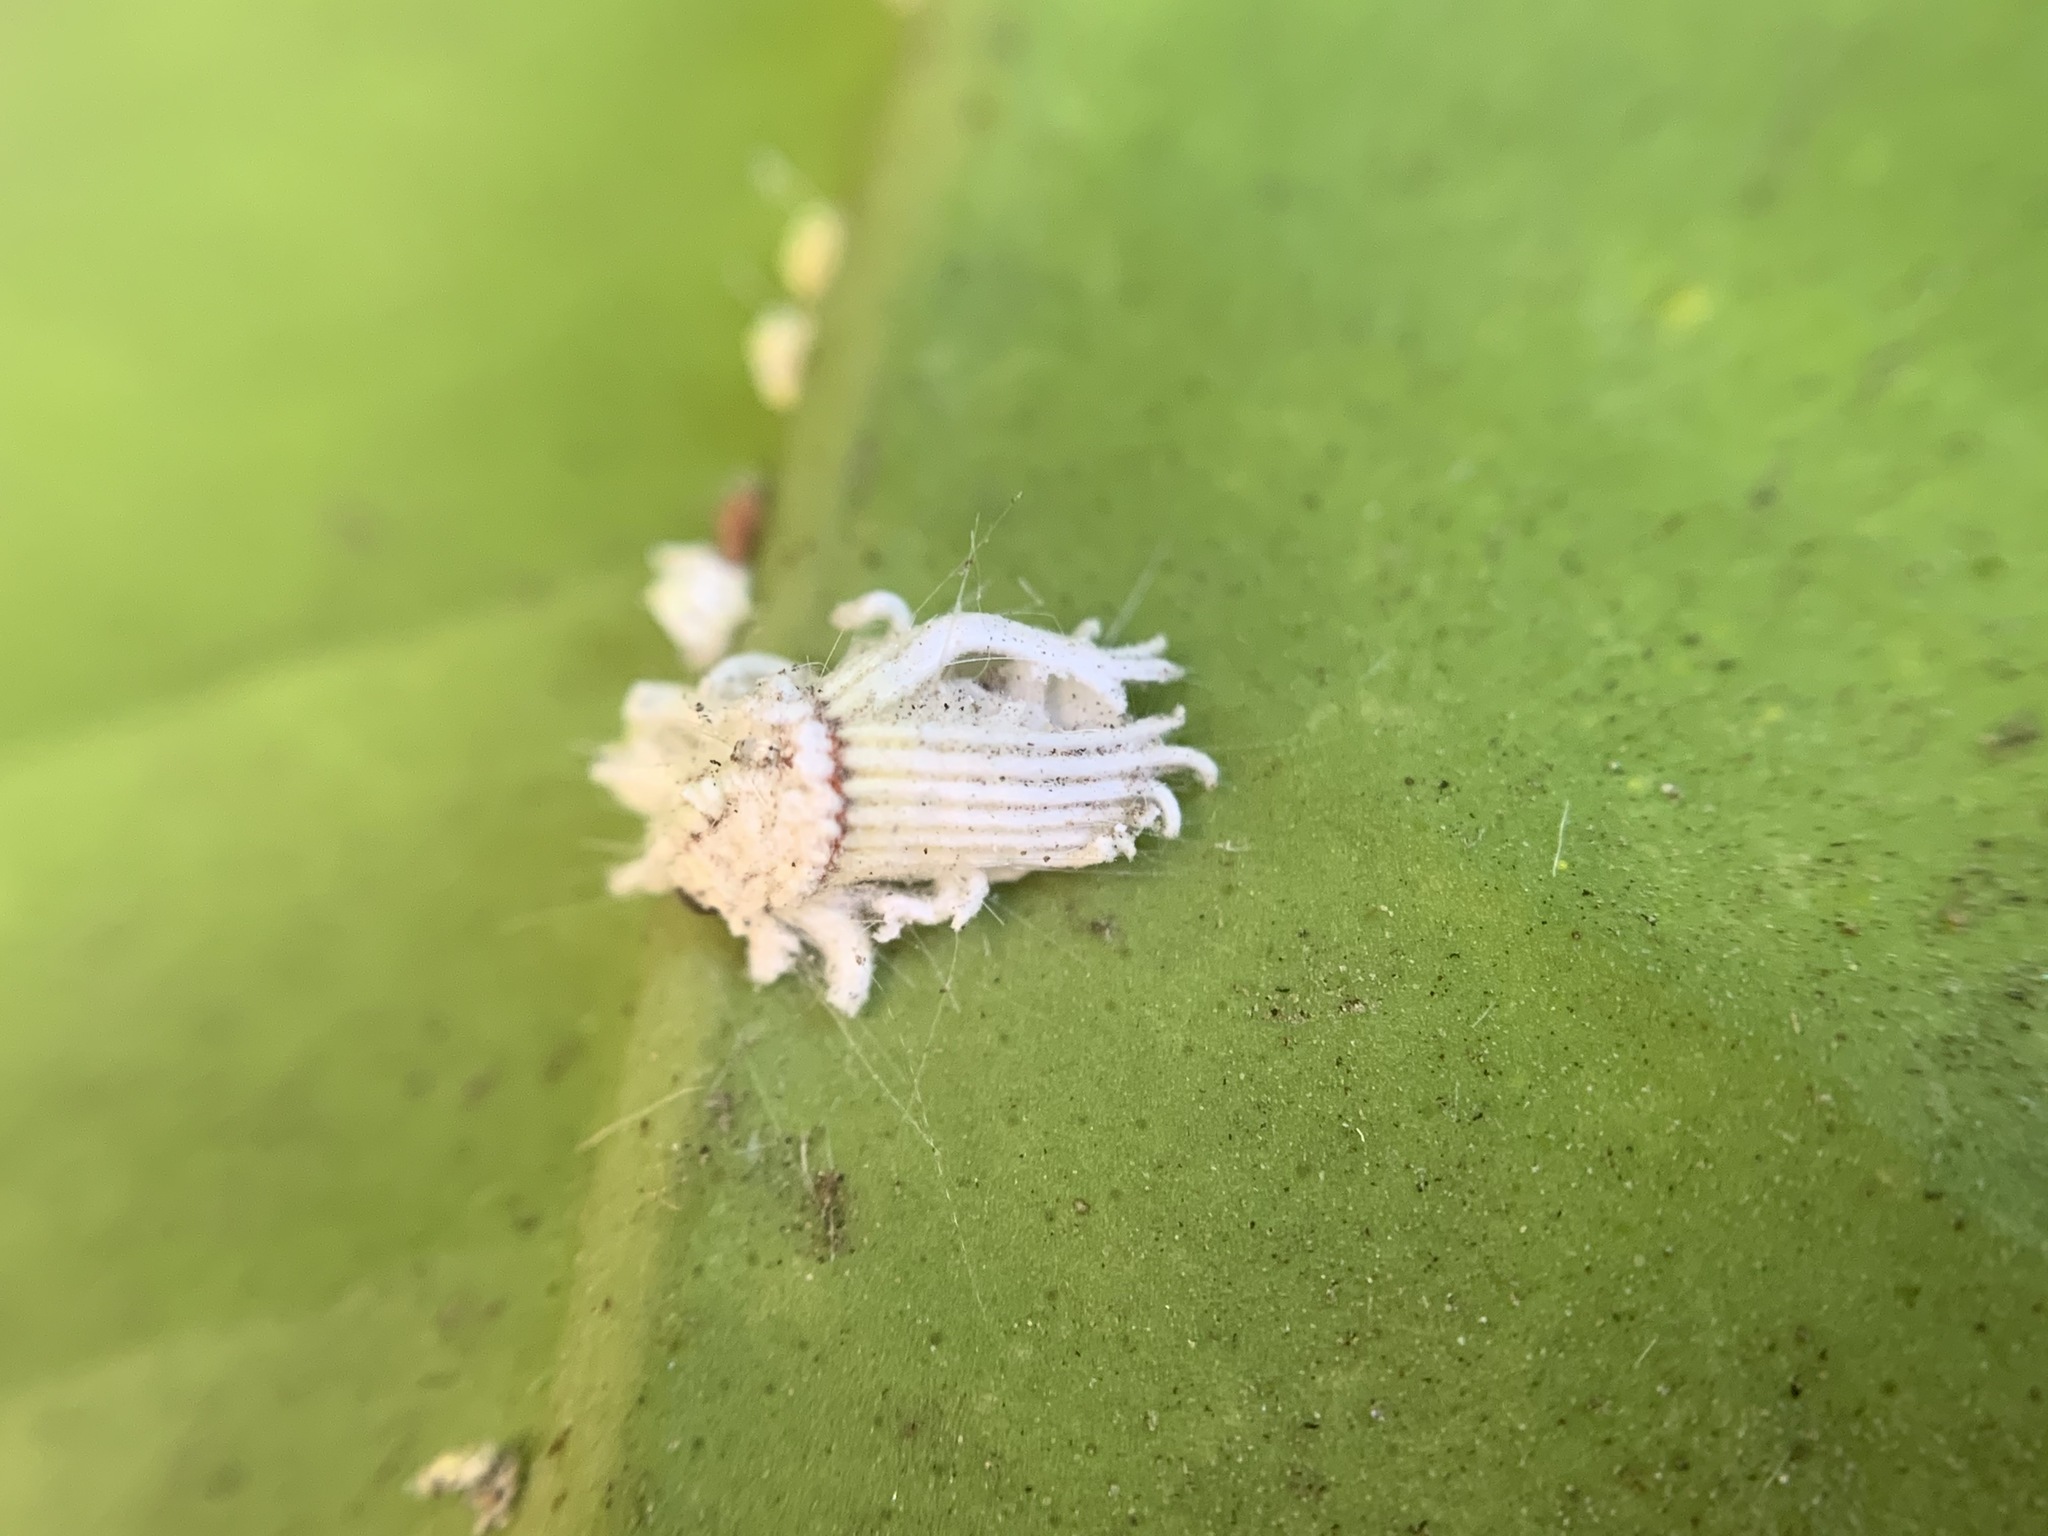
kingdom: Animalia
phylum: Arthropoda
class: Insecta
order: Hemiptera
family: Margarodidae
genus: Icerya
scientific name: Icerya purchasi
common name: Cottony cushion scale
